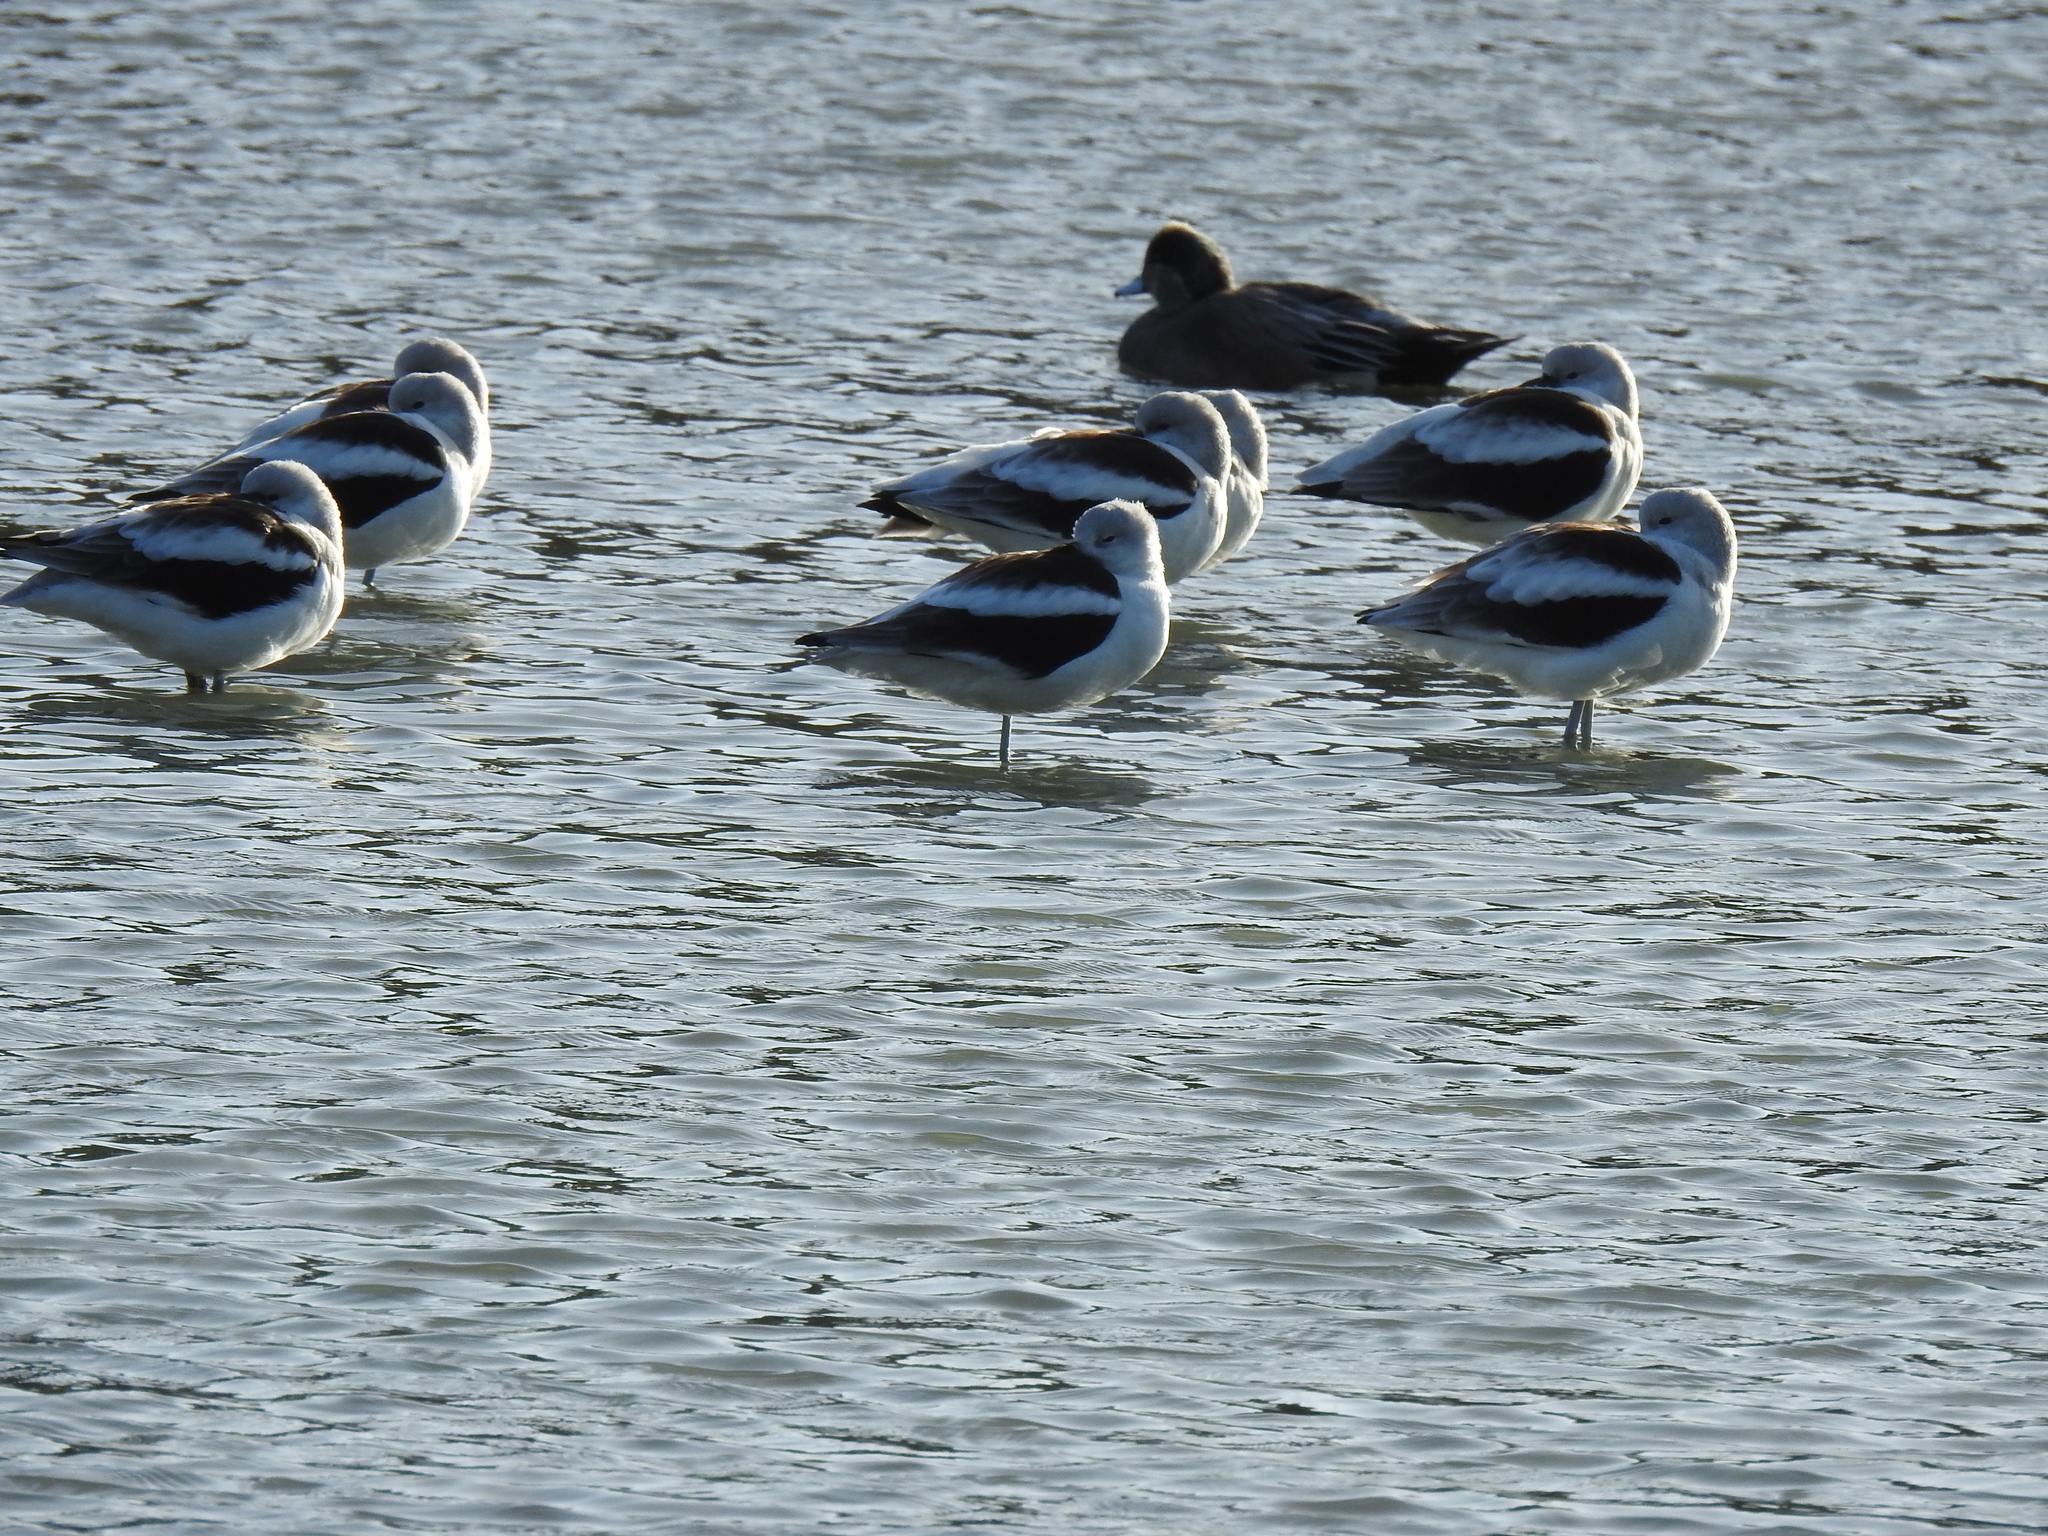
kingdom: Animalia
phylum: Chordata
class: Aves
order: Charadriiformes
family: Recurvirostridae
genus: Recurvirostra
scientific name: Recurvirostra americana
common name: American avocet
